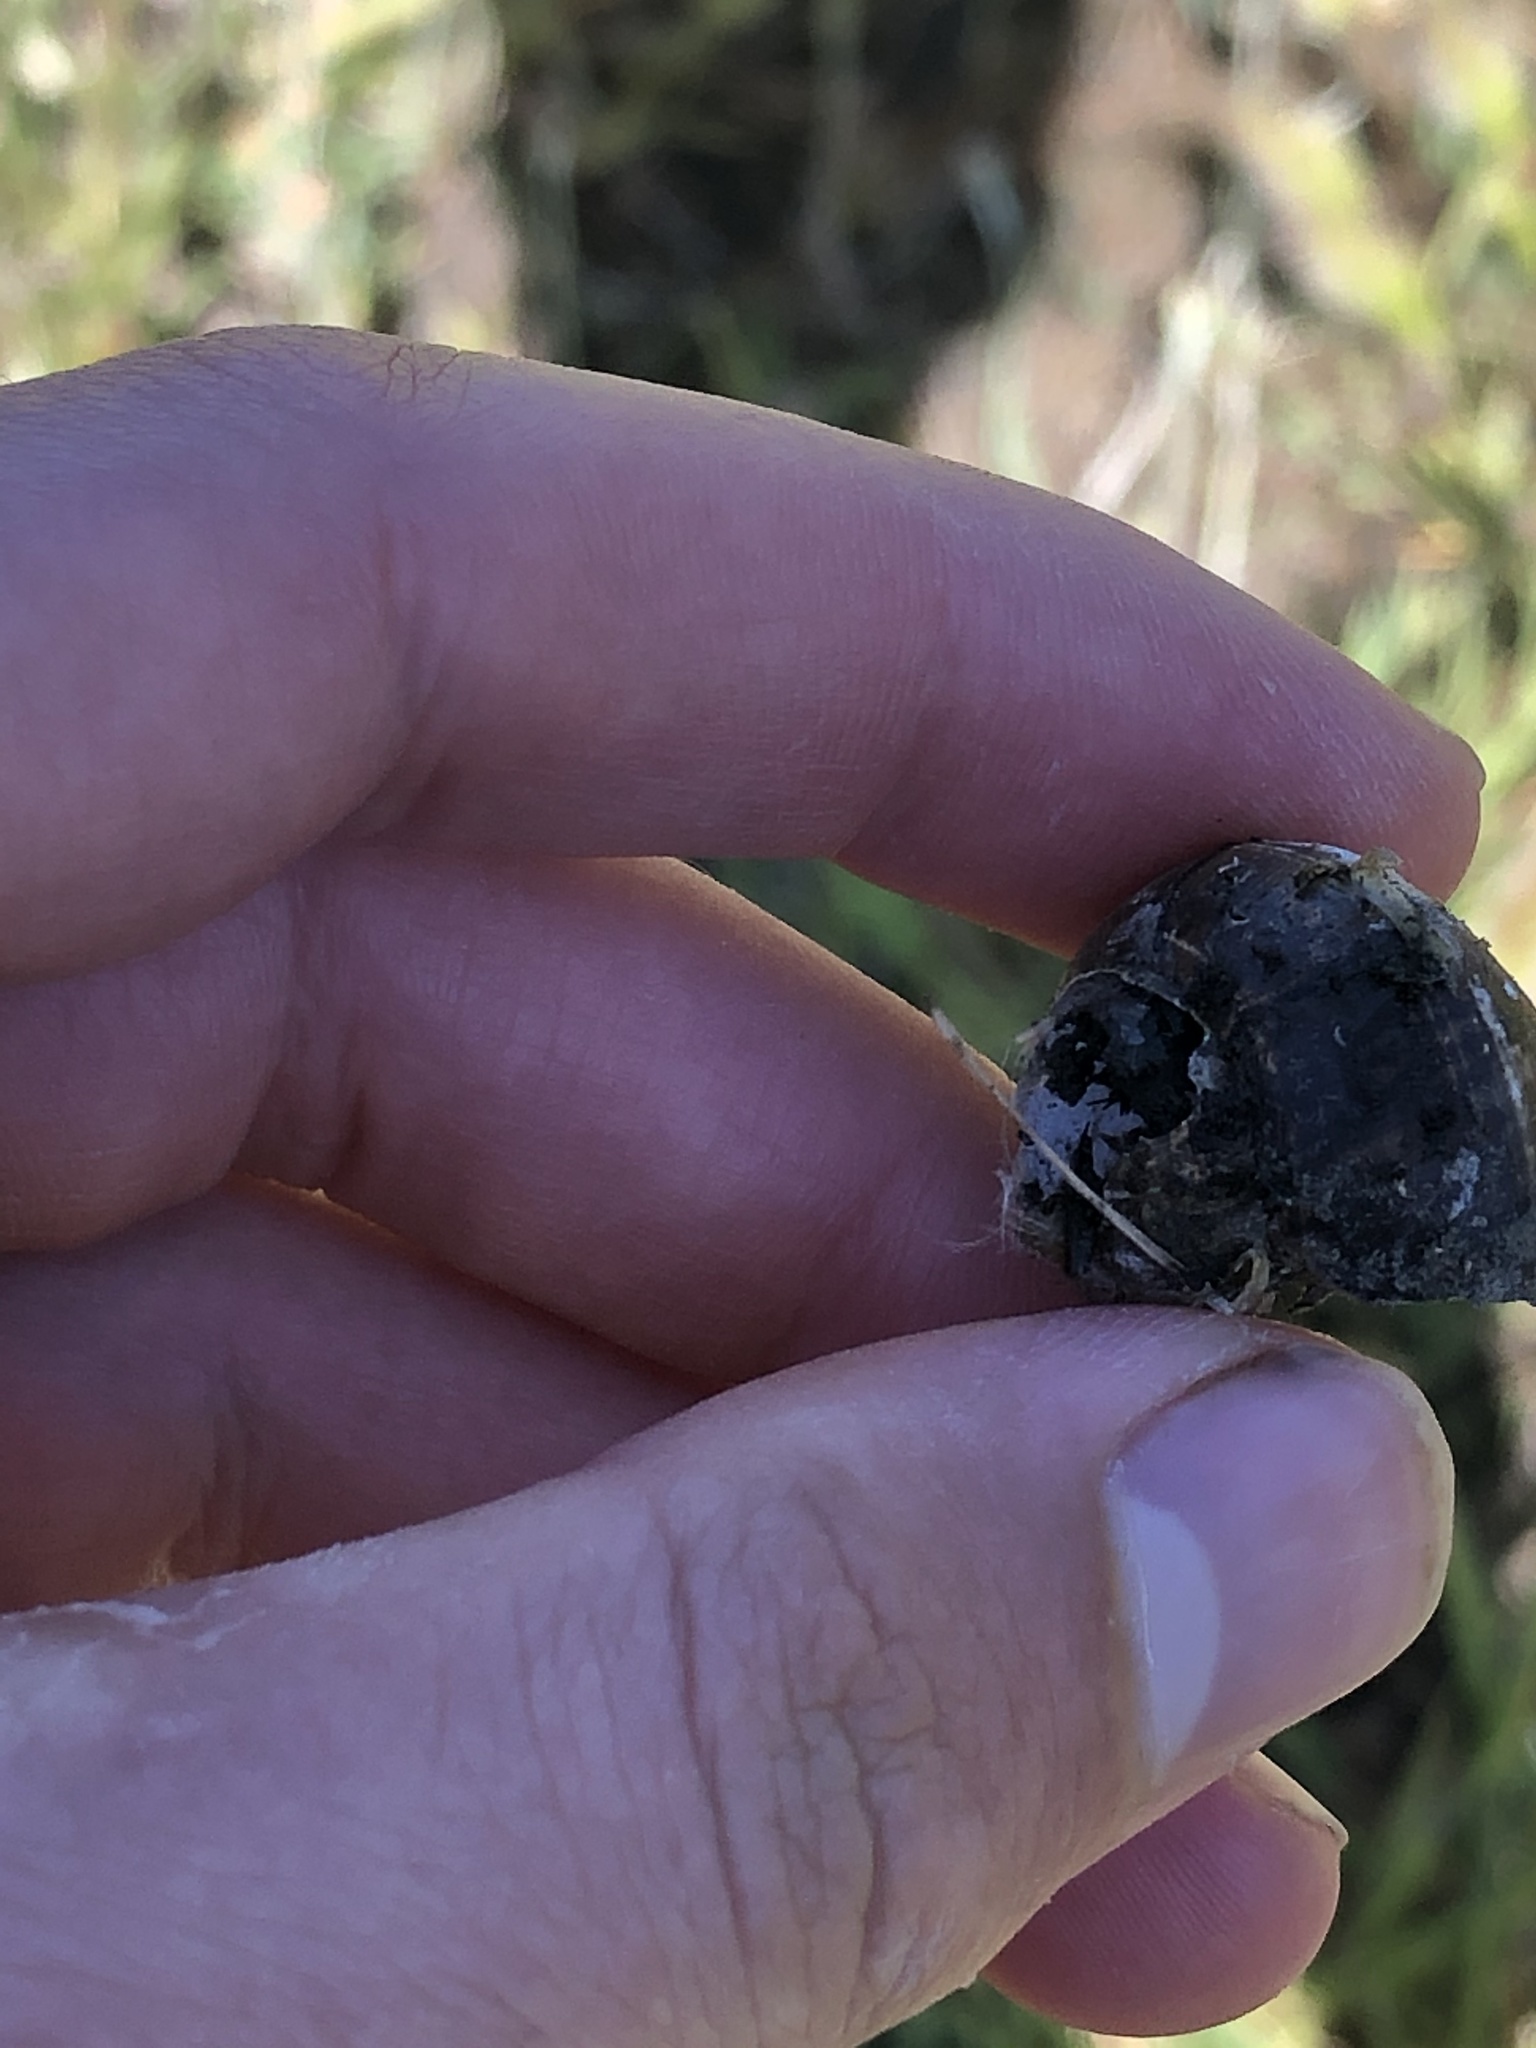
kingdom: Animalia
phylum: Mollusca
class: Gastropoda
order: Architaenioglossa
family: Viviparidae
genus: Cipangopaludina
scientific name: Cipangopaludina chinensis
